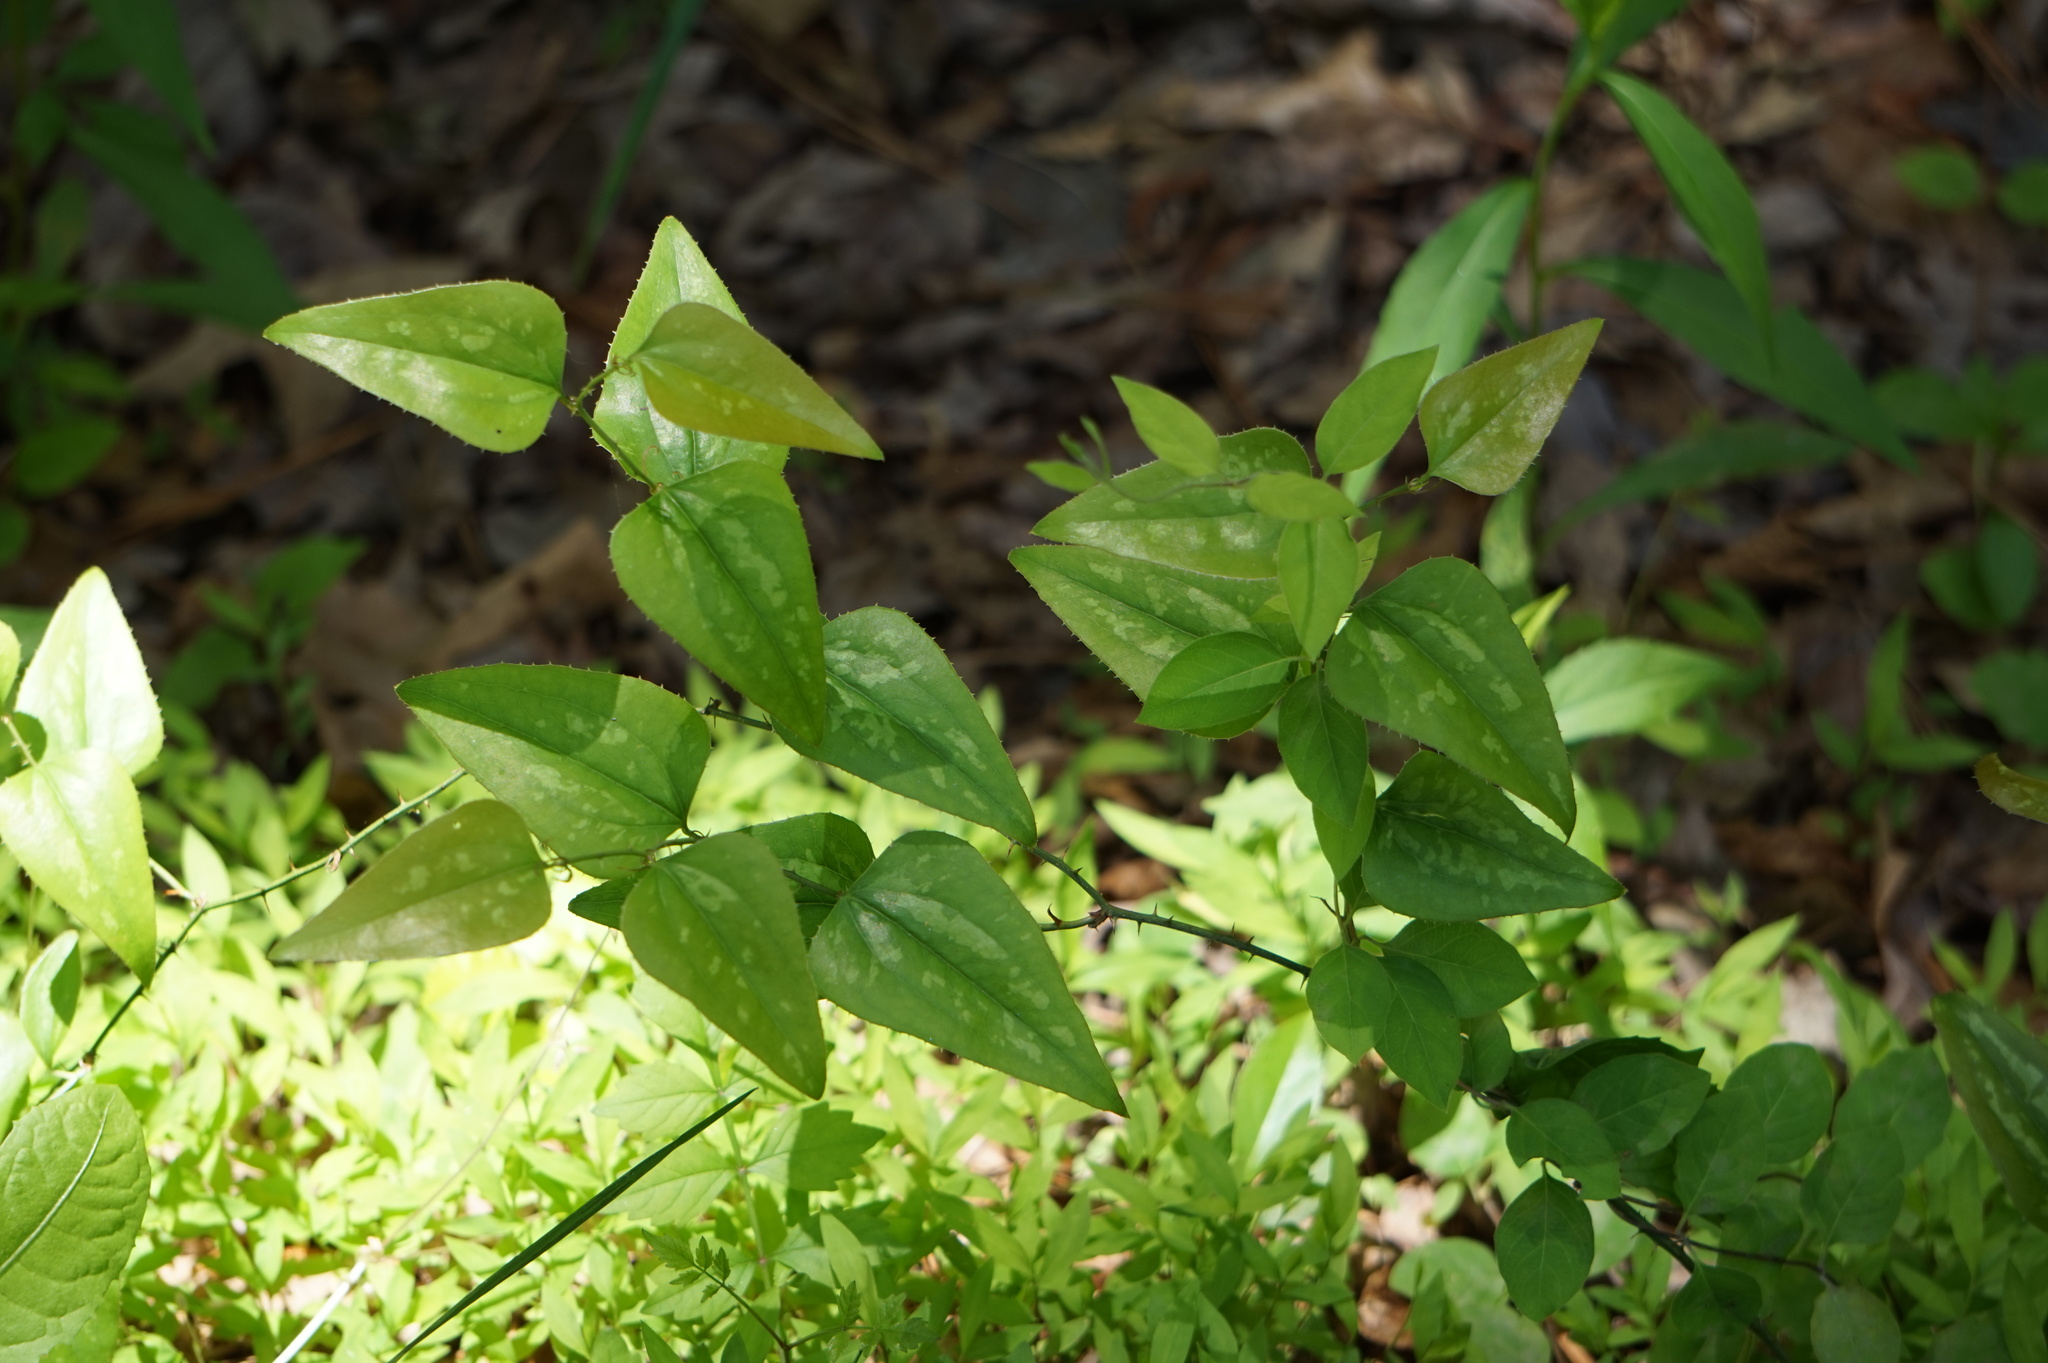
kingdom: Plantae
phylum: Tracheophyta
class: Liliopsida
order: Liliales
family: Smilacaceae
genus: Smilax
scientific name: Smilax bona-nox
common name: Catbrier
